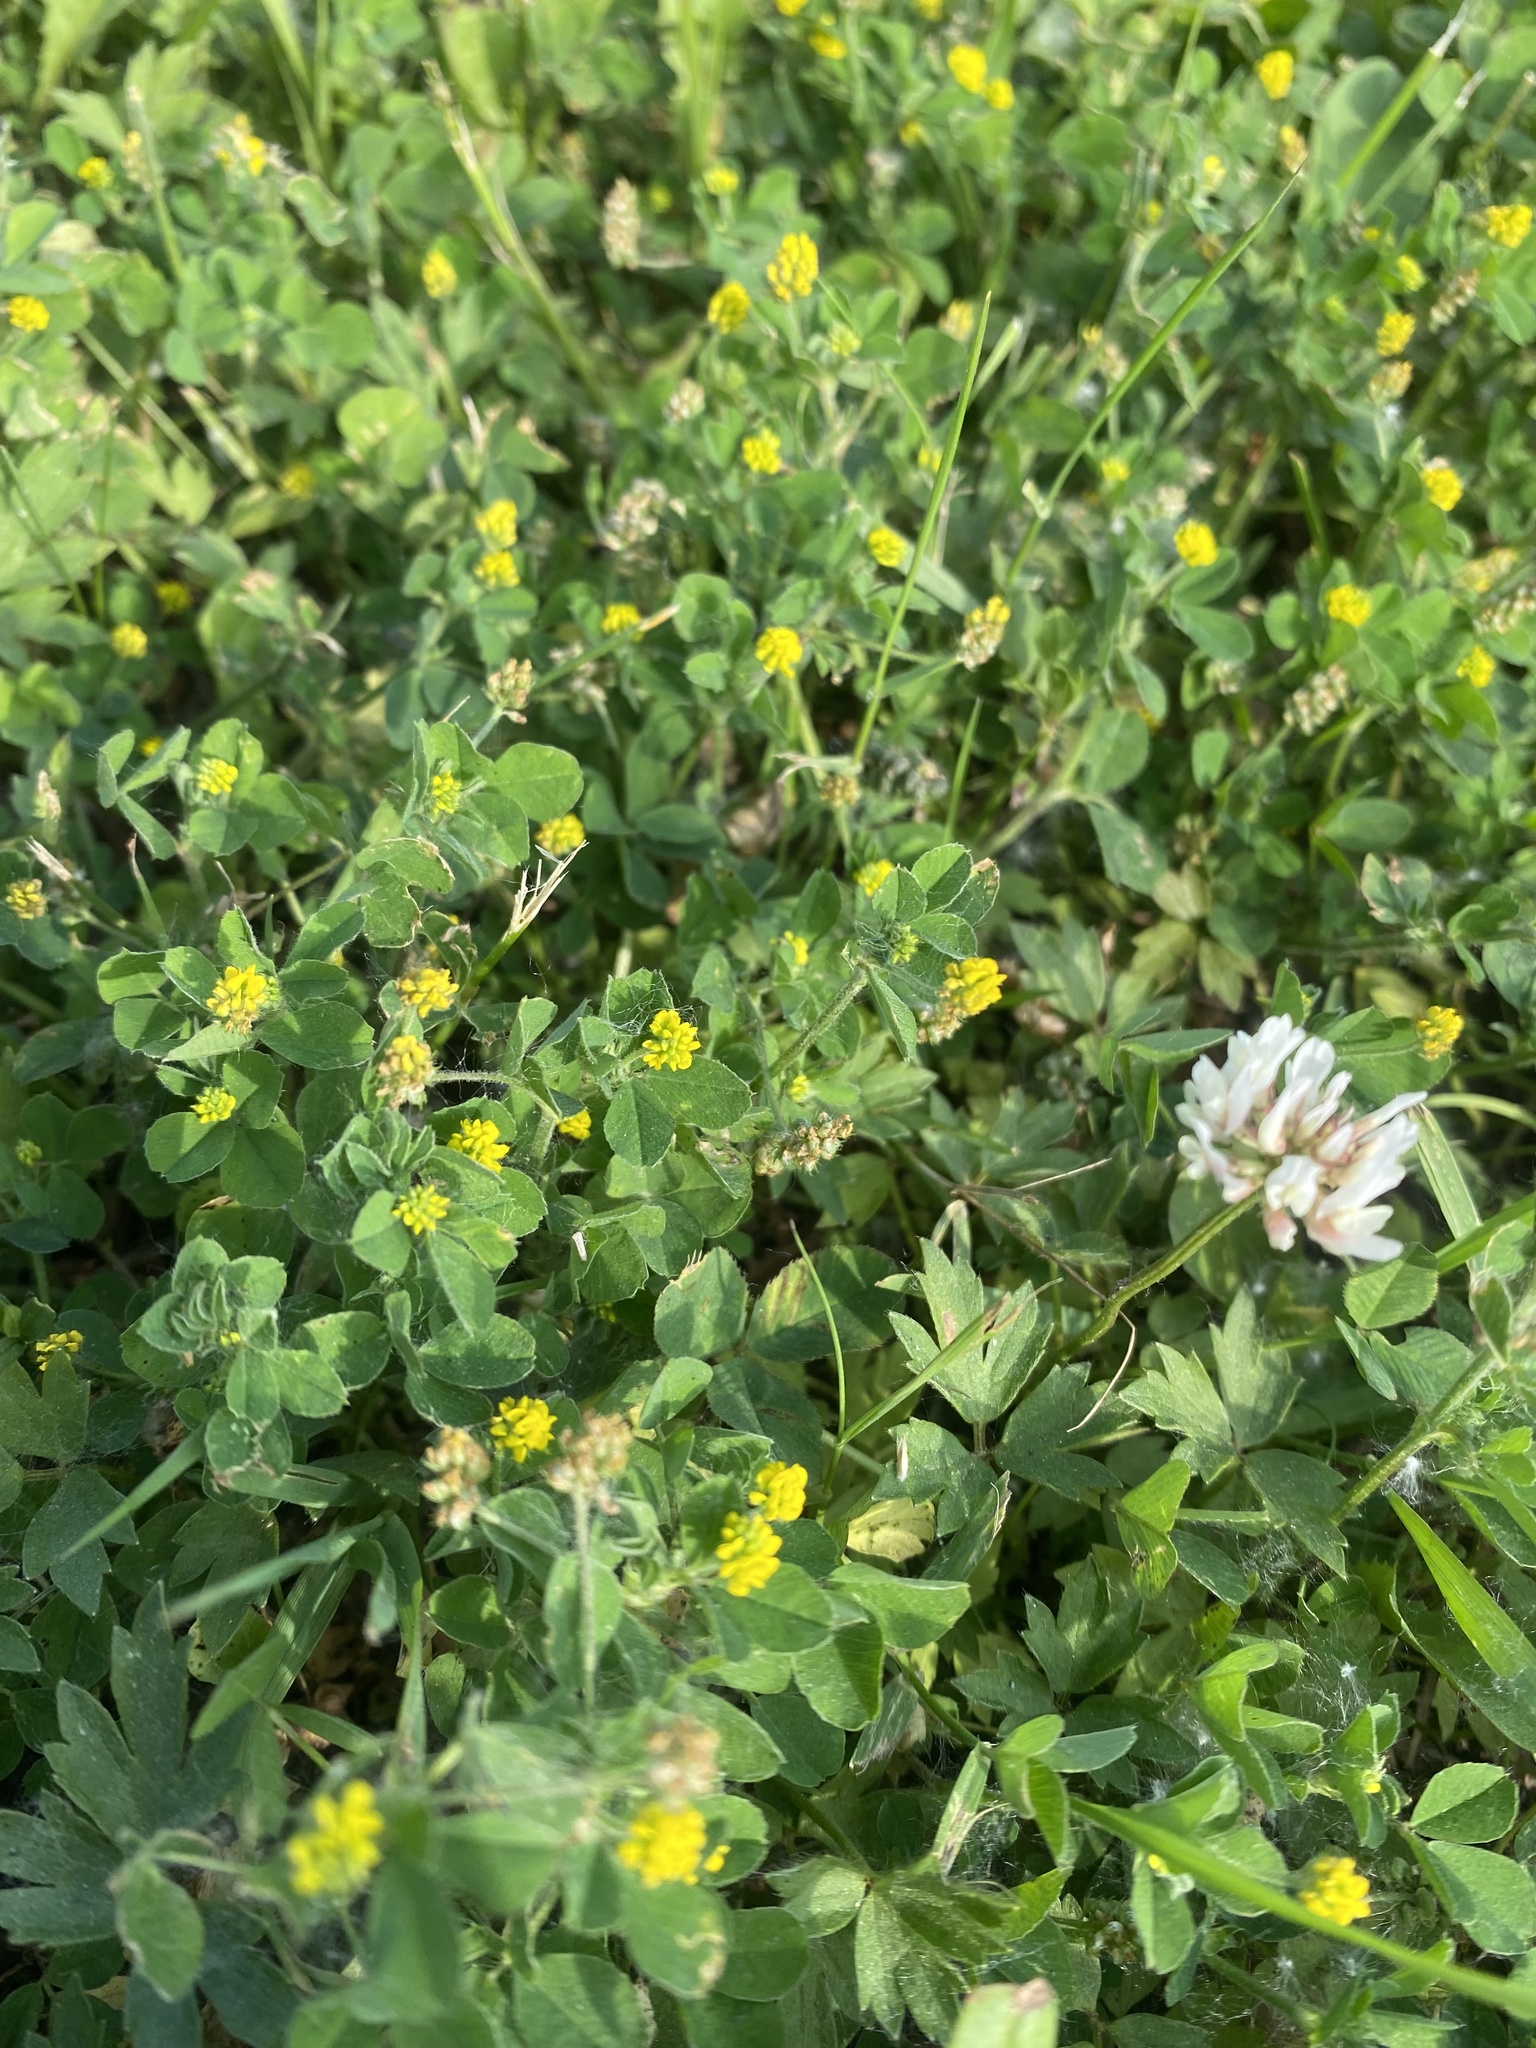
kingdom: Plantae
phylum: Tracheophyta
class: Magnoliopsida
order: Fabales
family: Fabaceae
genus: Medicago
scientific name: Medicago lupulina
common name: Black medick
